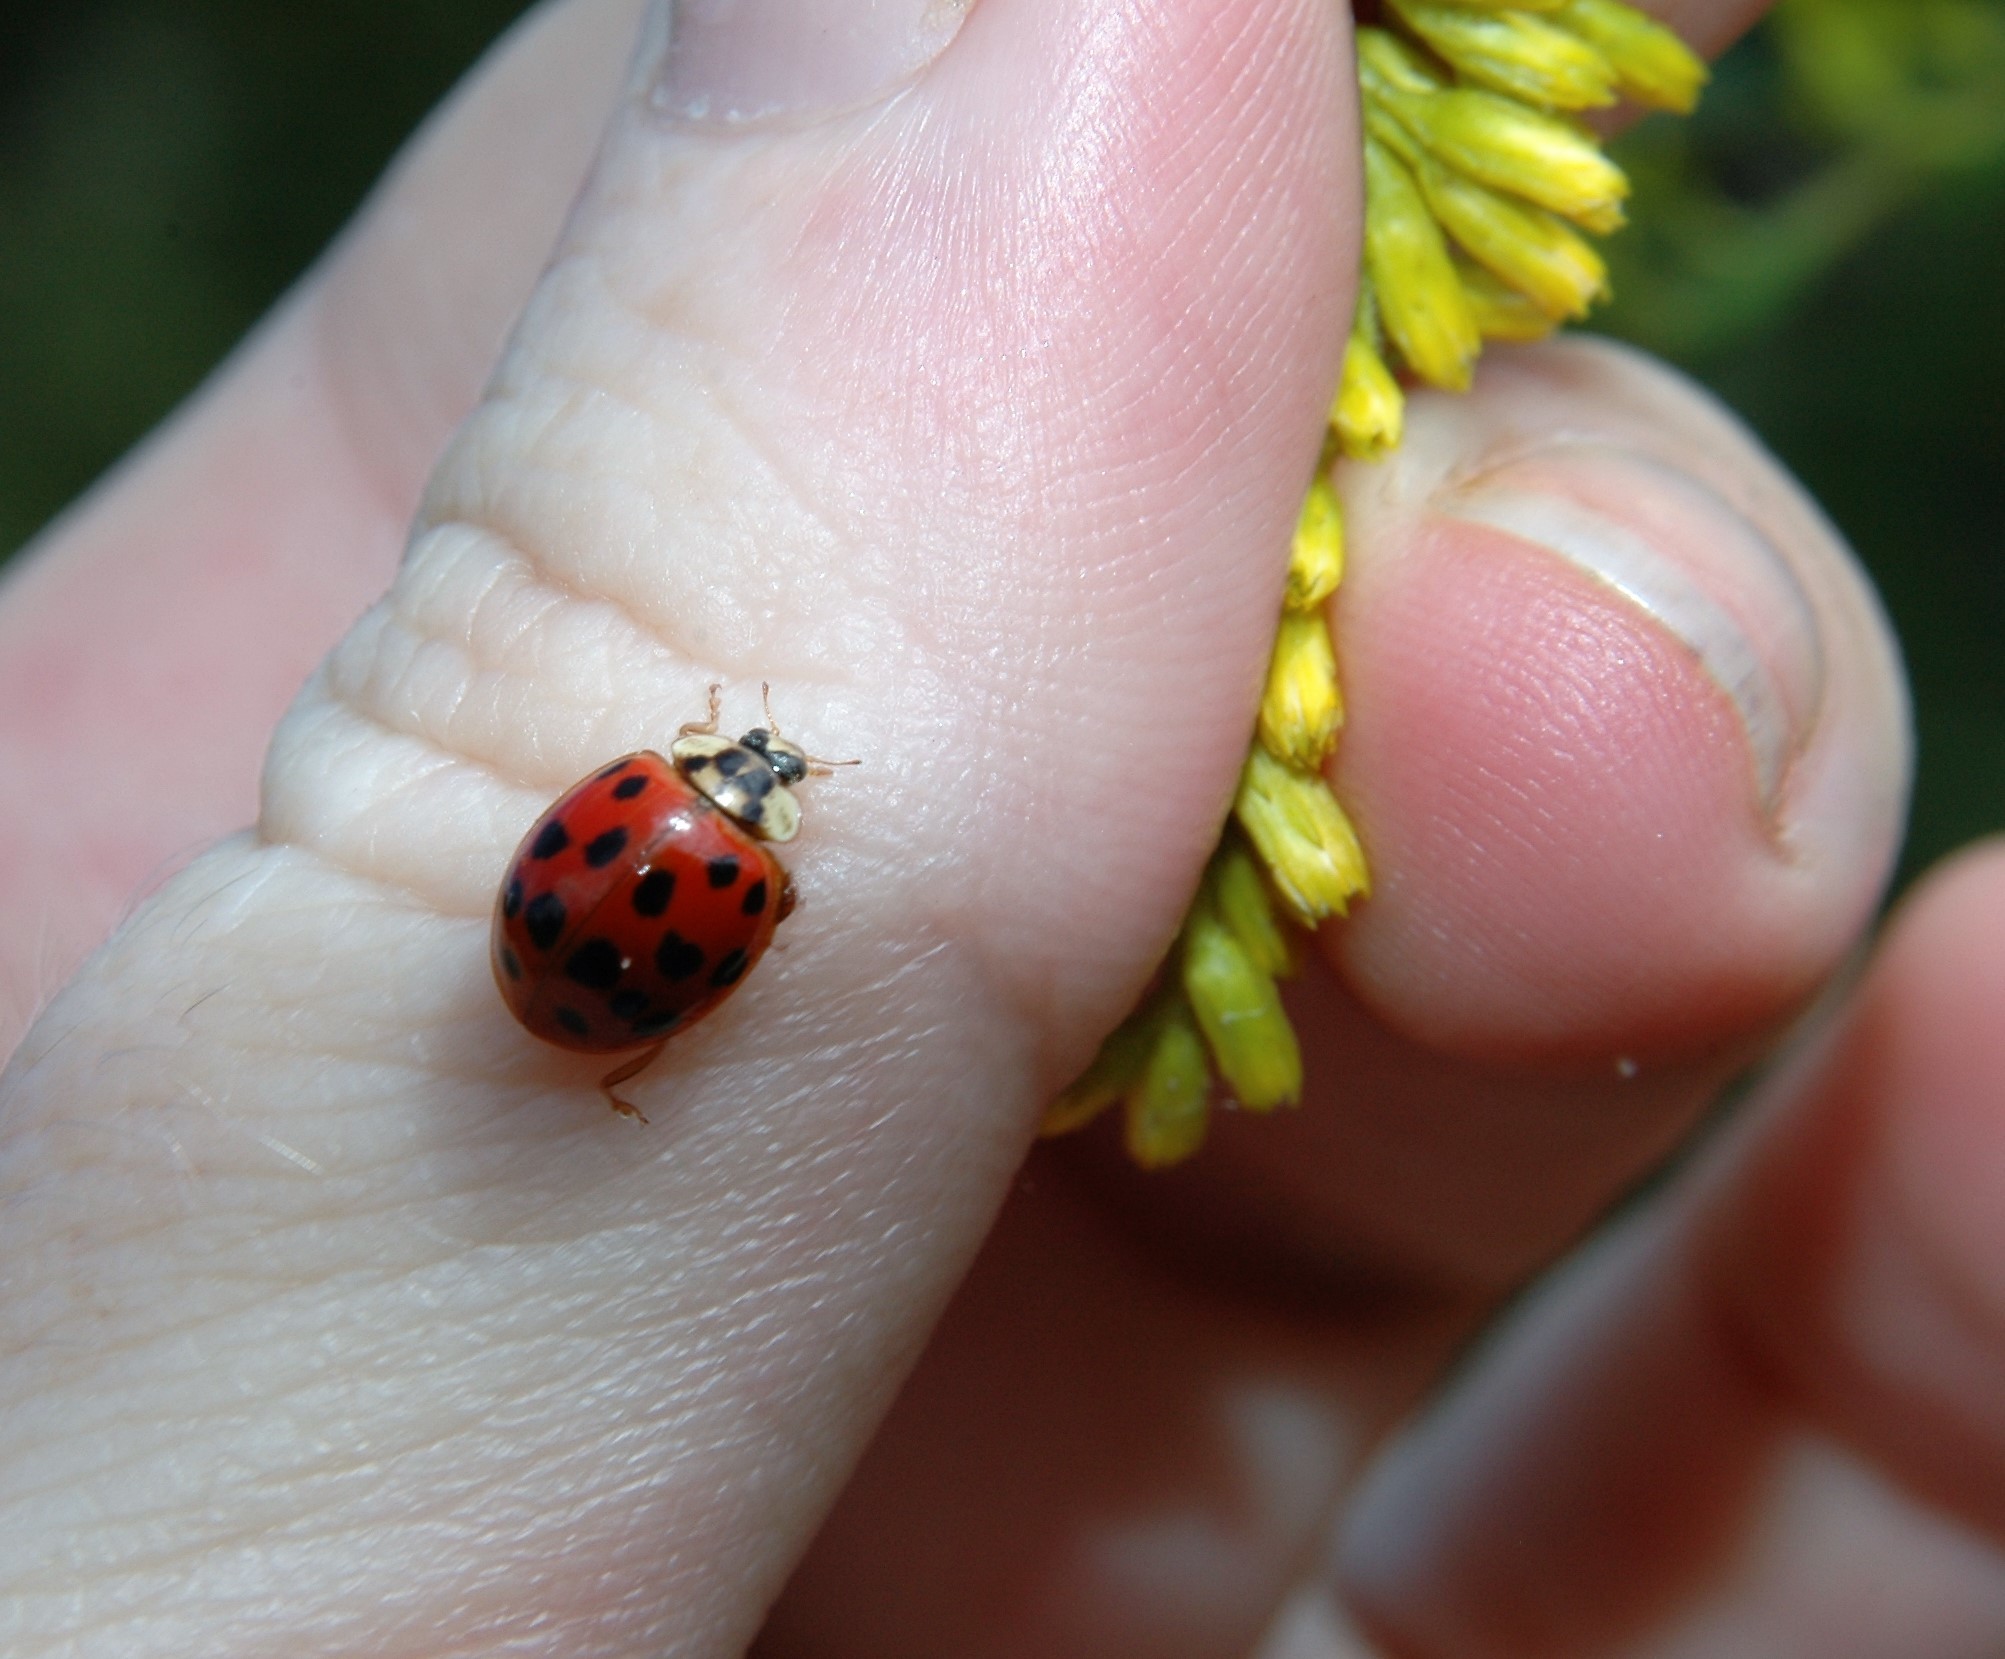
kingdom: Animalia
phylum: Arthropoda
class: Insecta
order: Coleoptera
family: Coccinellidae
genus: Harmonia
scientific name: Harmonia axyridis
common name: Harlequin ladybird
